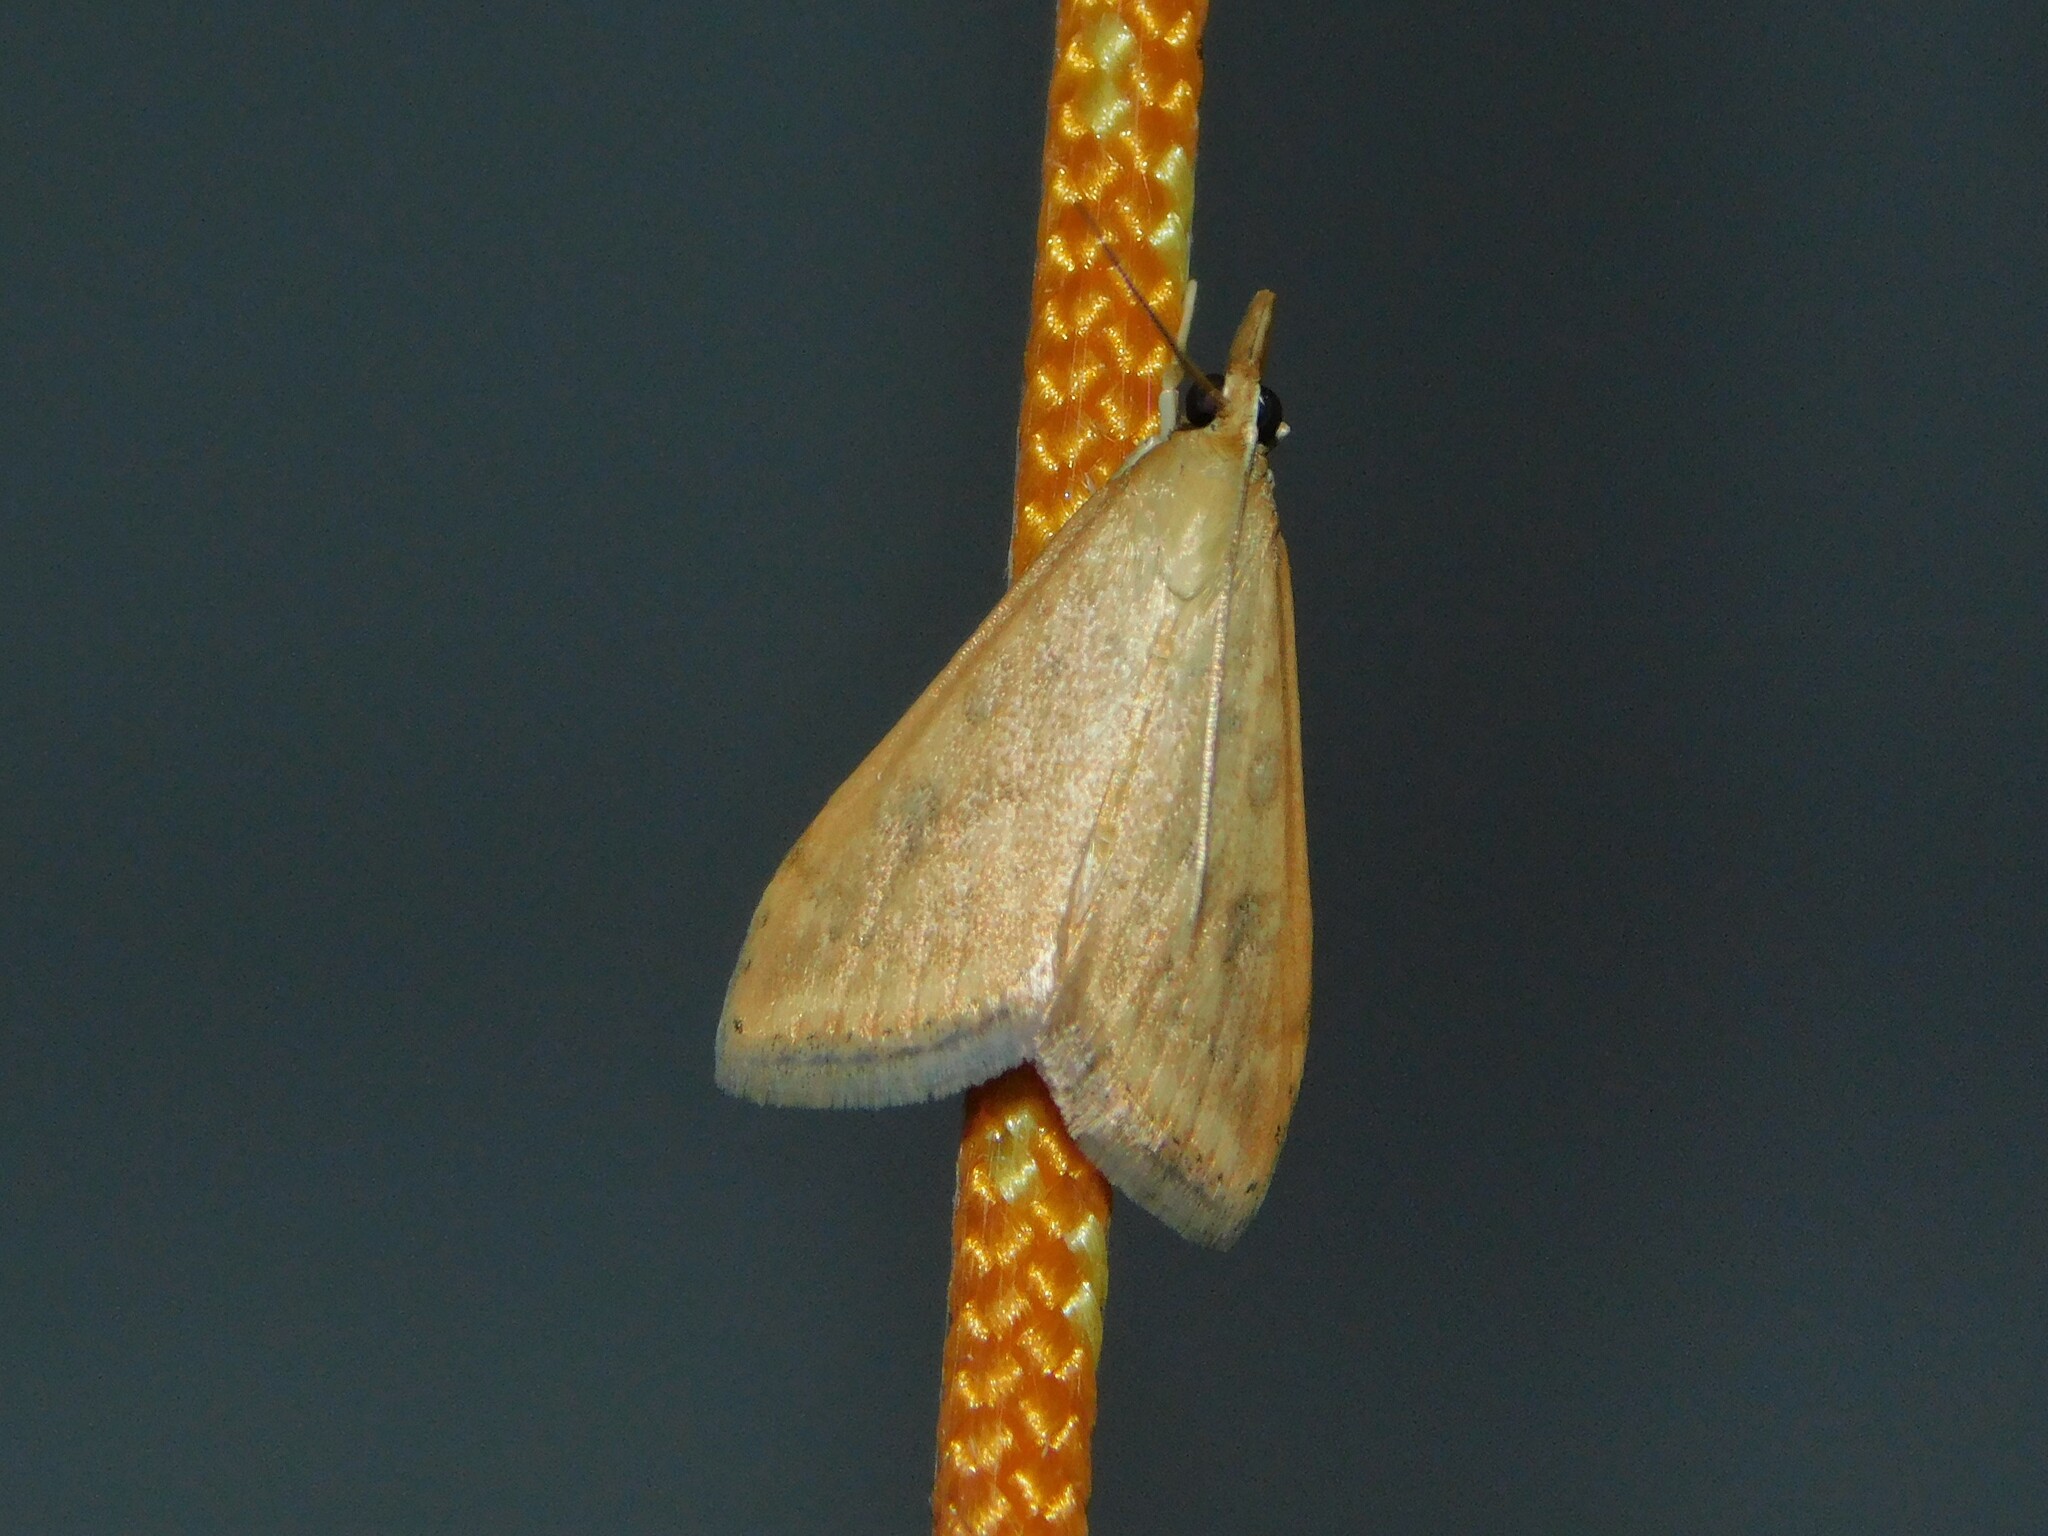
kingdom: Animalia
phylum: Arthropoda
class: Insecta
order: Lepidoptera
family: Crambidae
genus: Udea
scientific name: Udea ferrugalis
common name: Rusty dot
